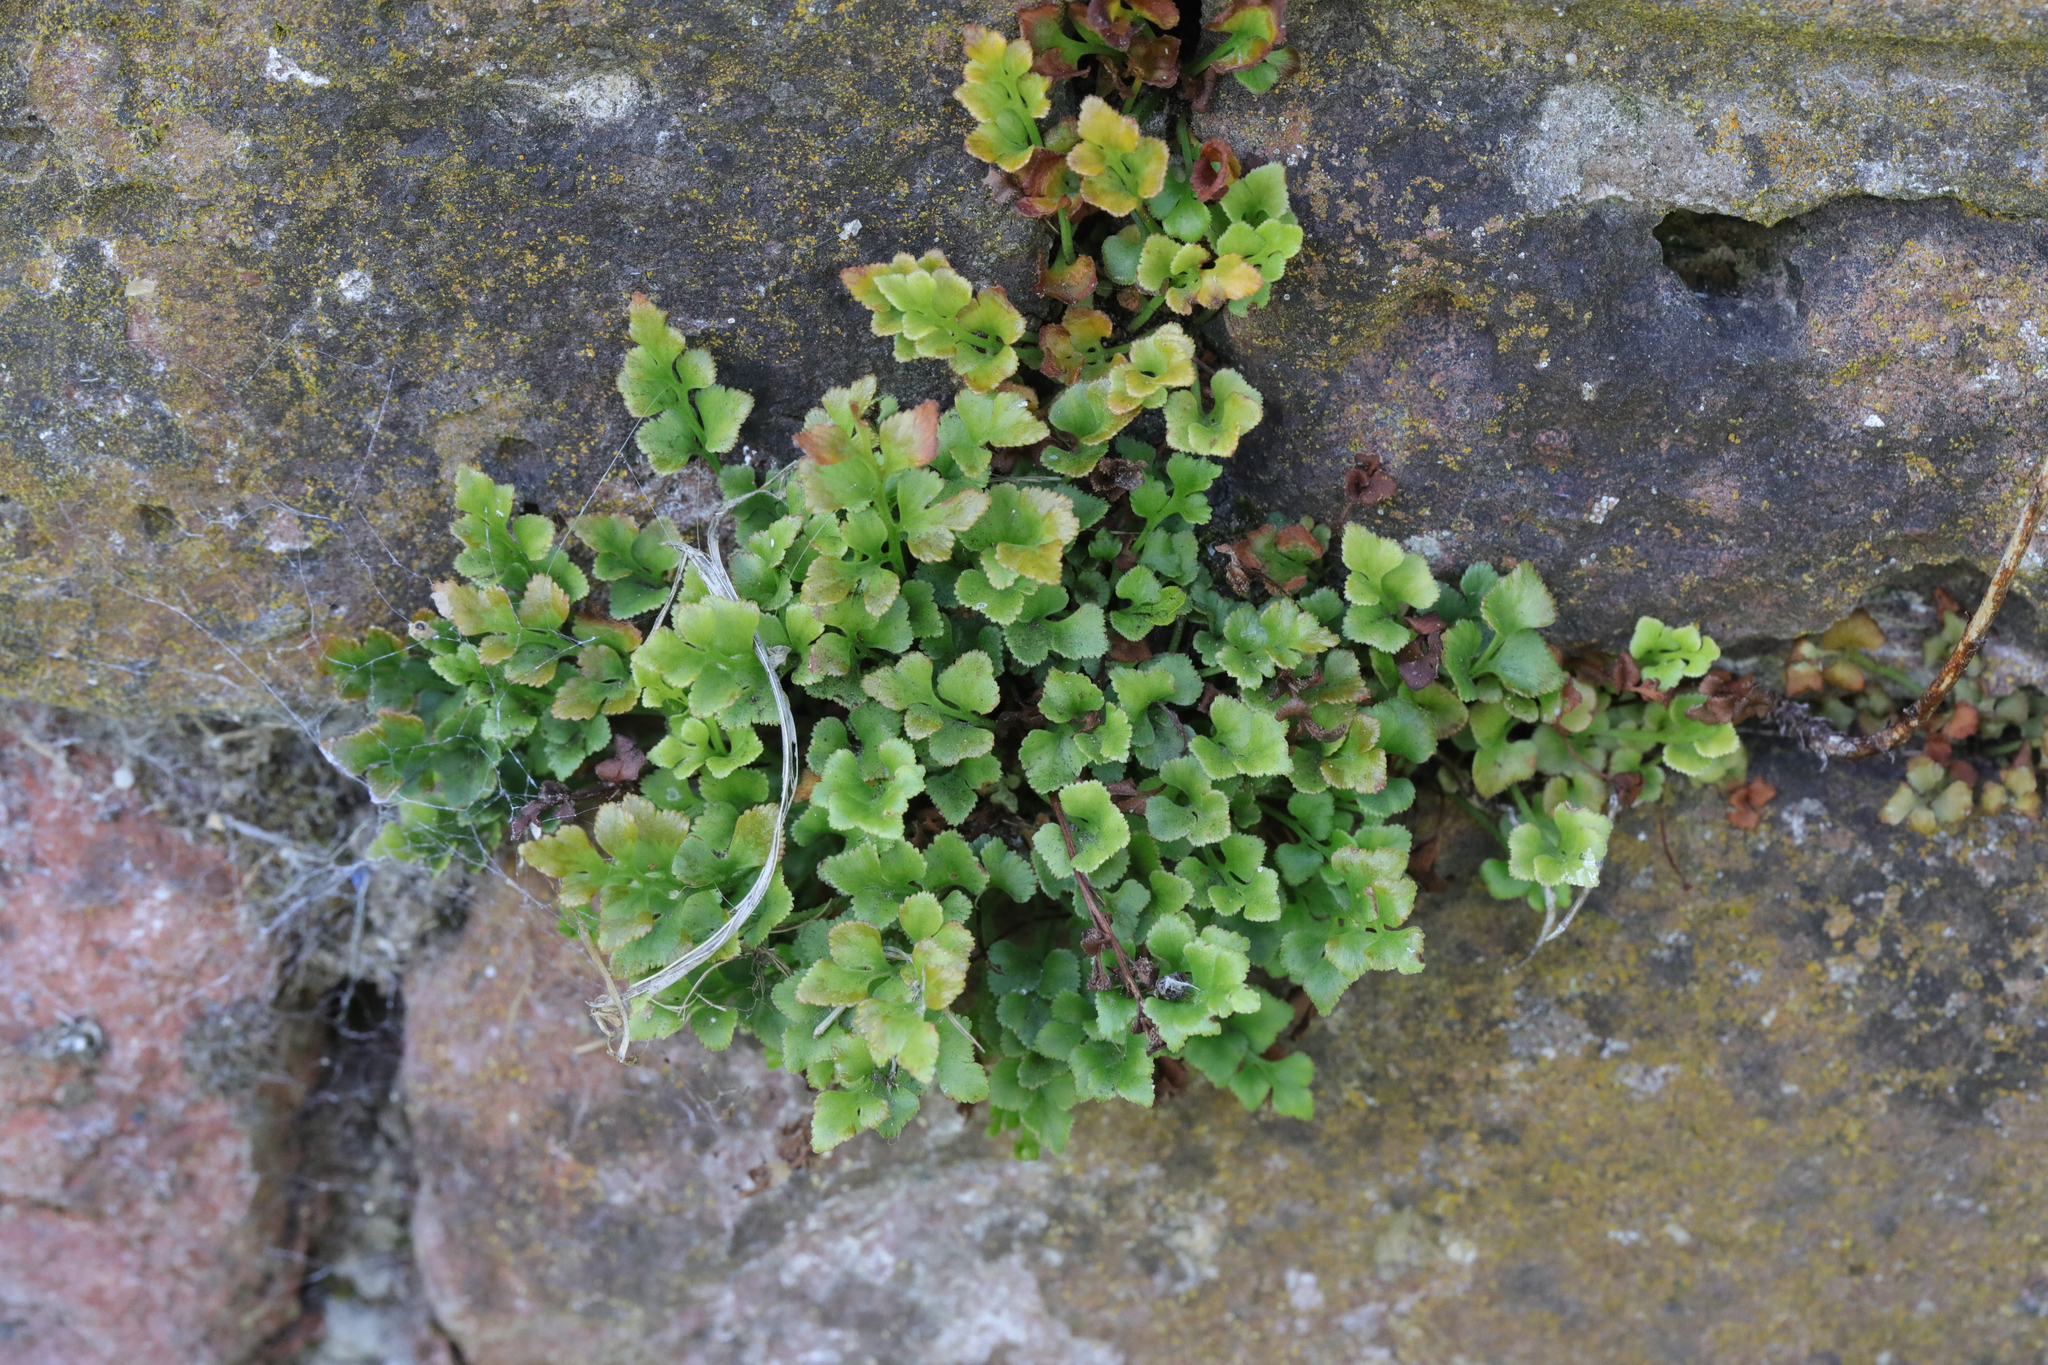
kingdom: Plantae
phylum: Tracheophyta
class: Polypodiopsida
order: Polypodiales
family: Aspleniaceae
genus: Asplenium
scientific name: Asplenium ruta-muraria
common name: Wall-rue
